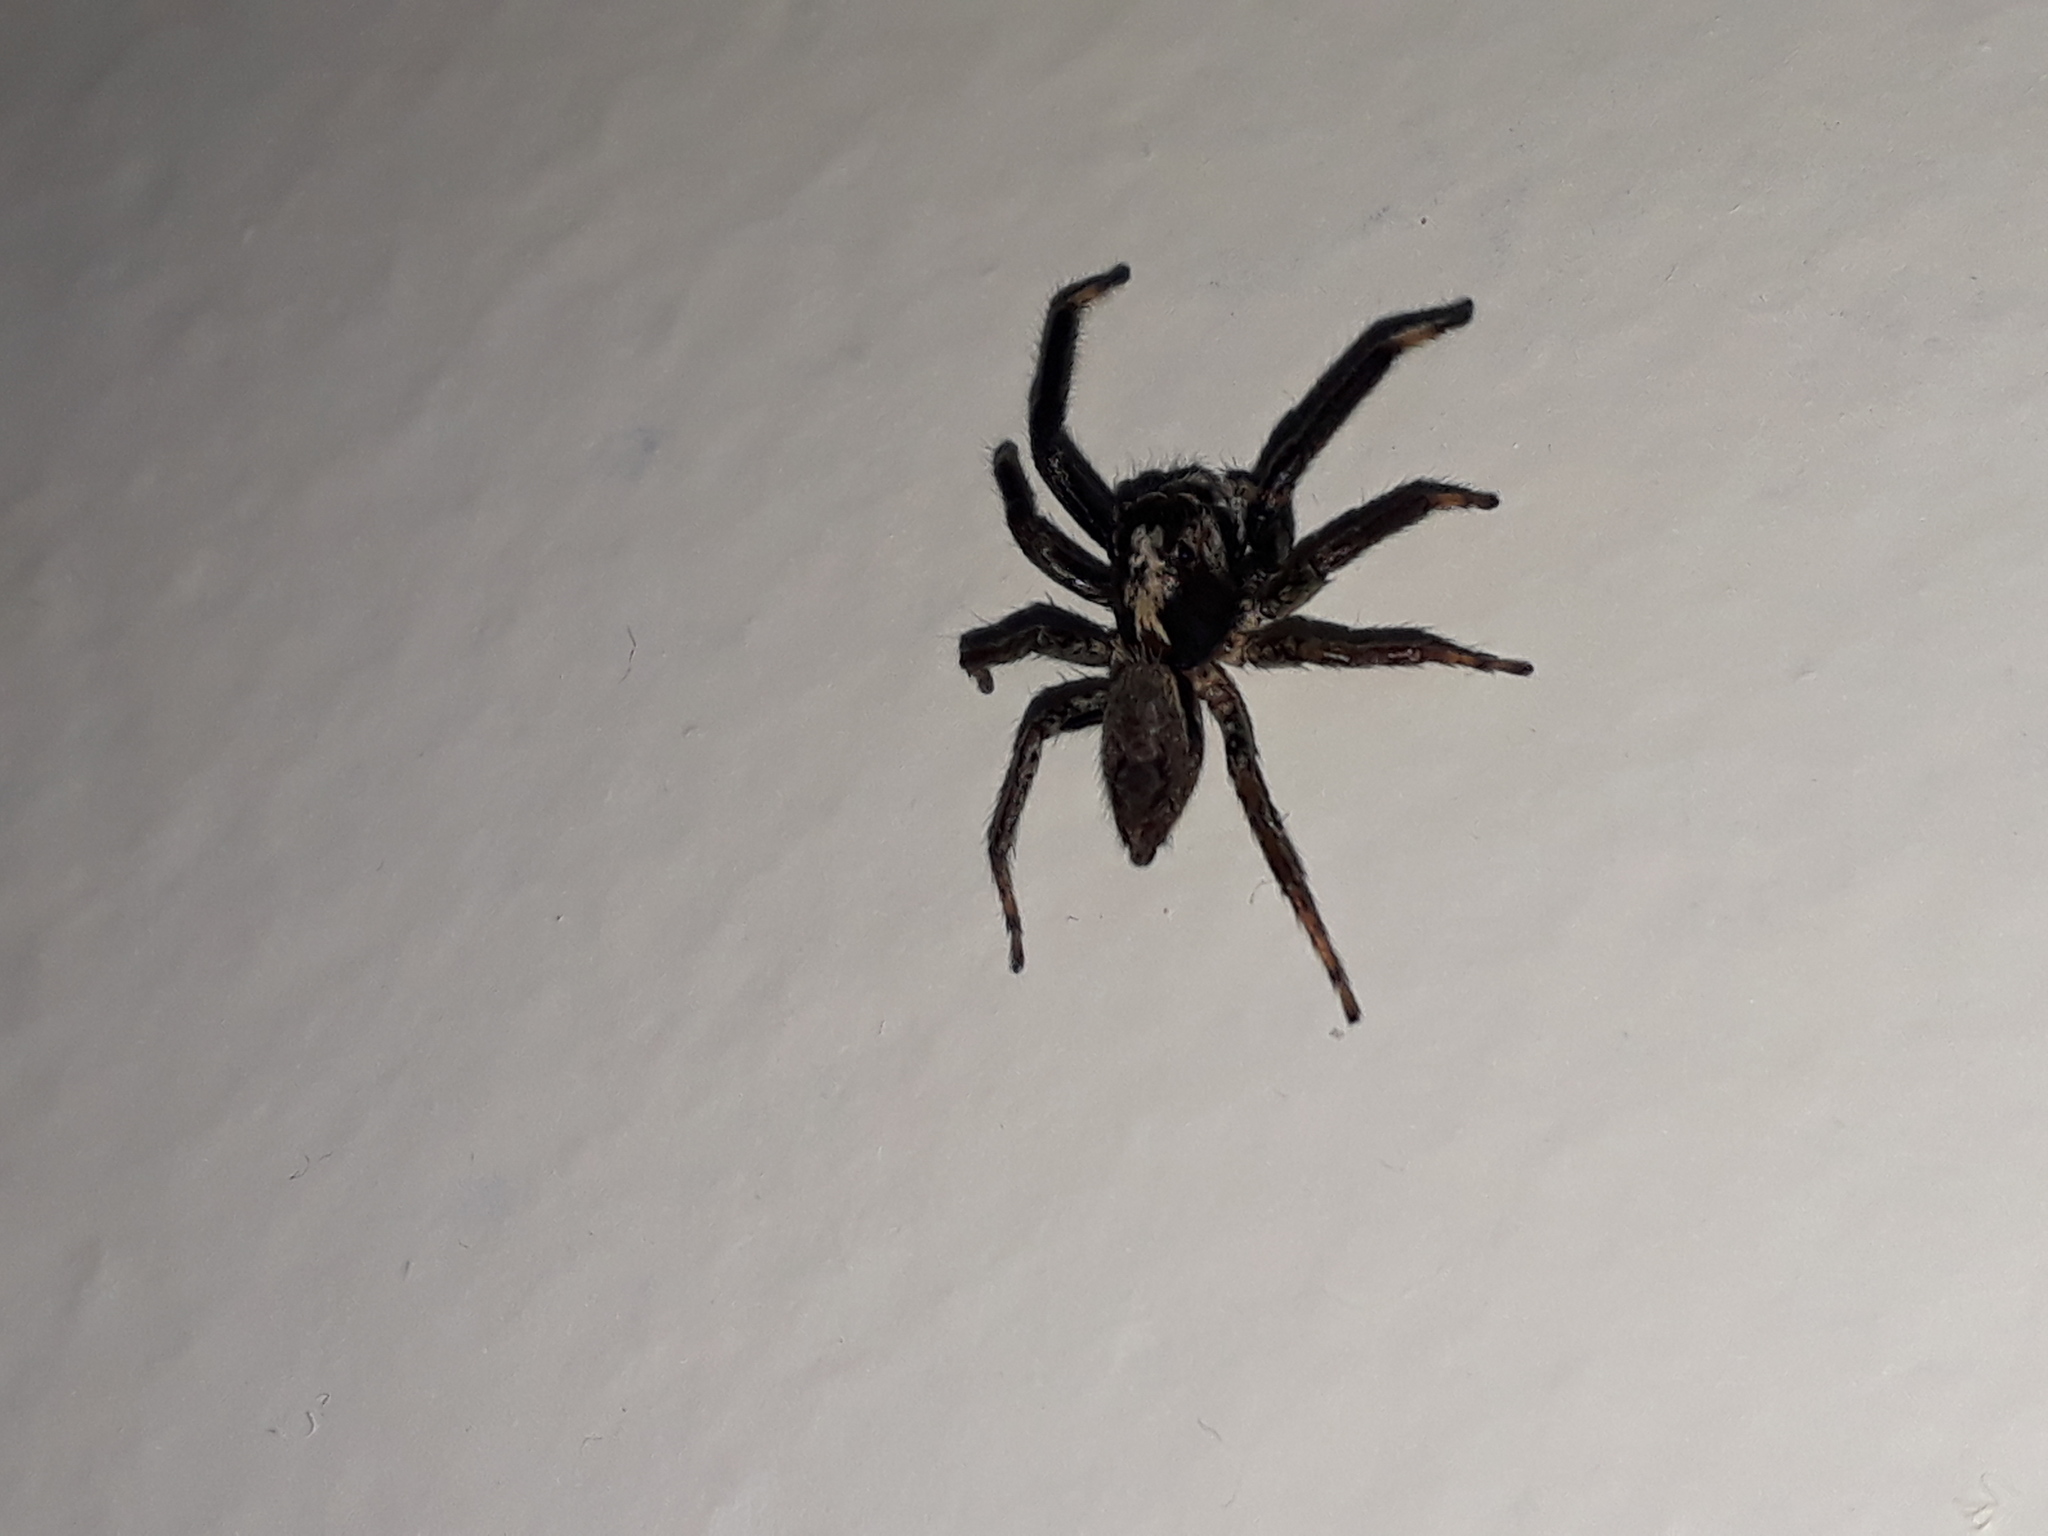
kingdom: Animalia
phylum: Arthropoda
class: Arachnida
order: Araneae
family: Salticidae
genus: Coryphasia
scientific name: Coryphasia albibarbis
